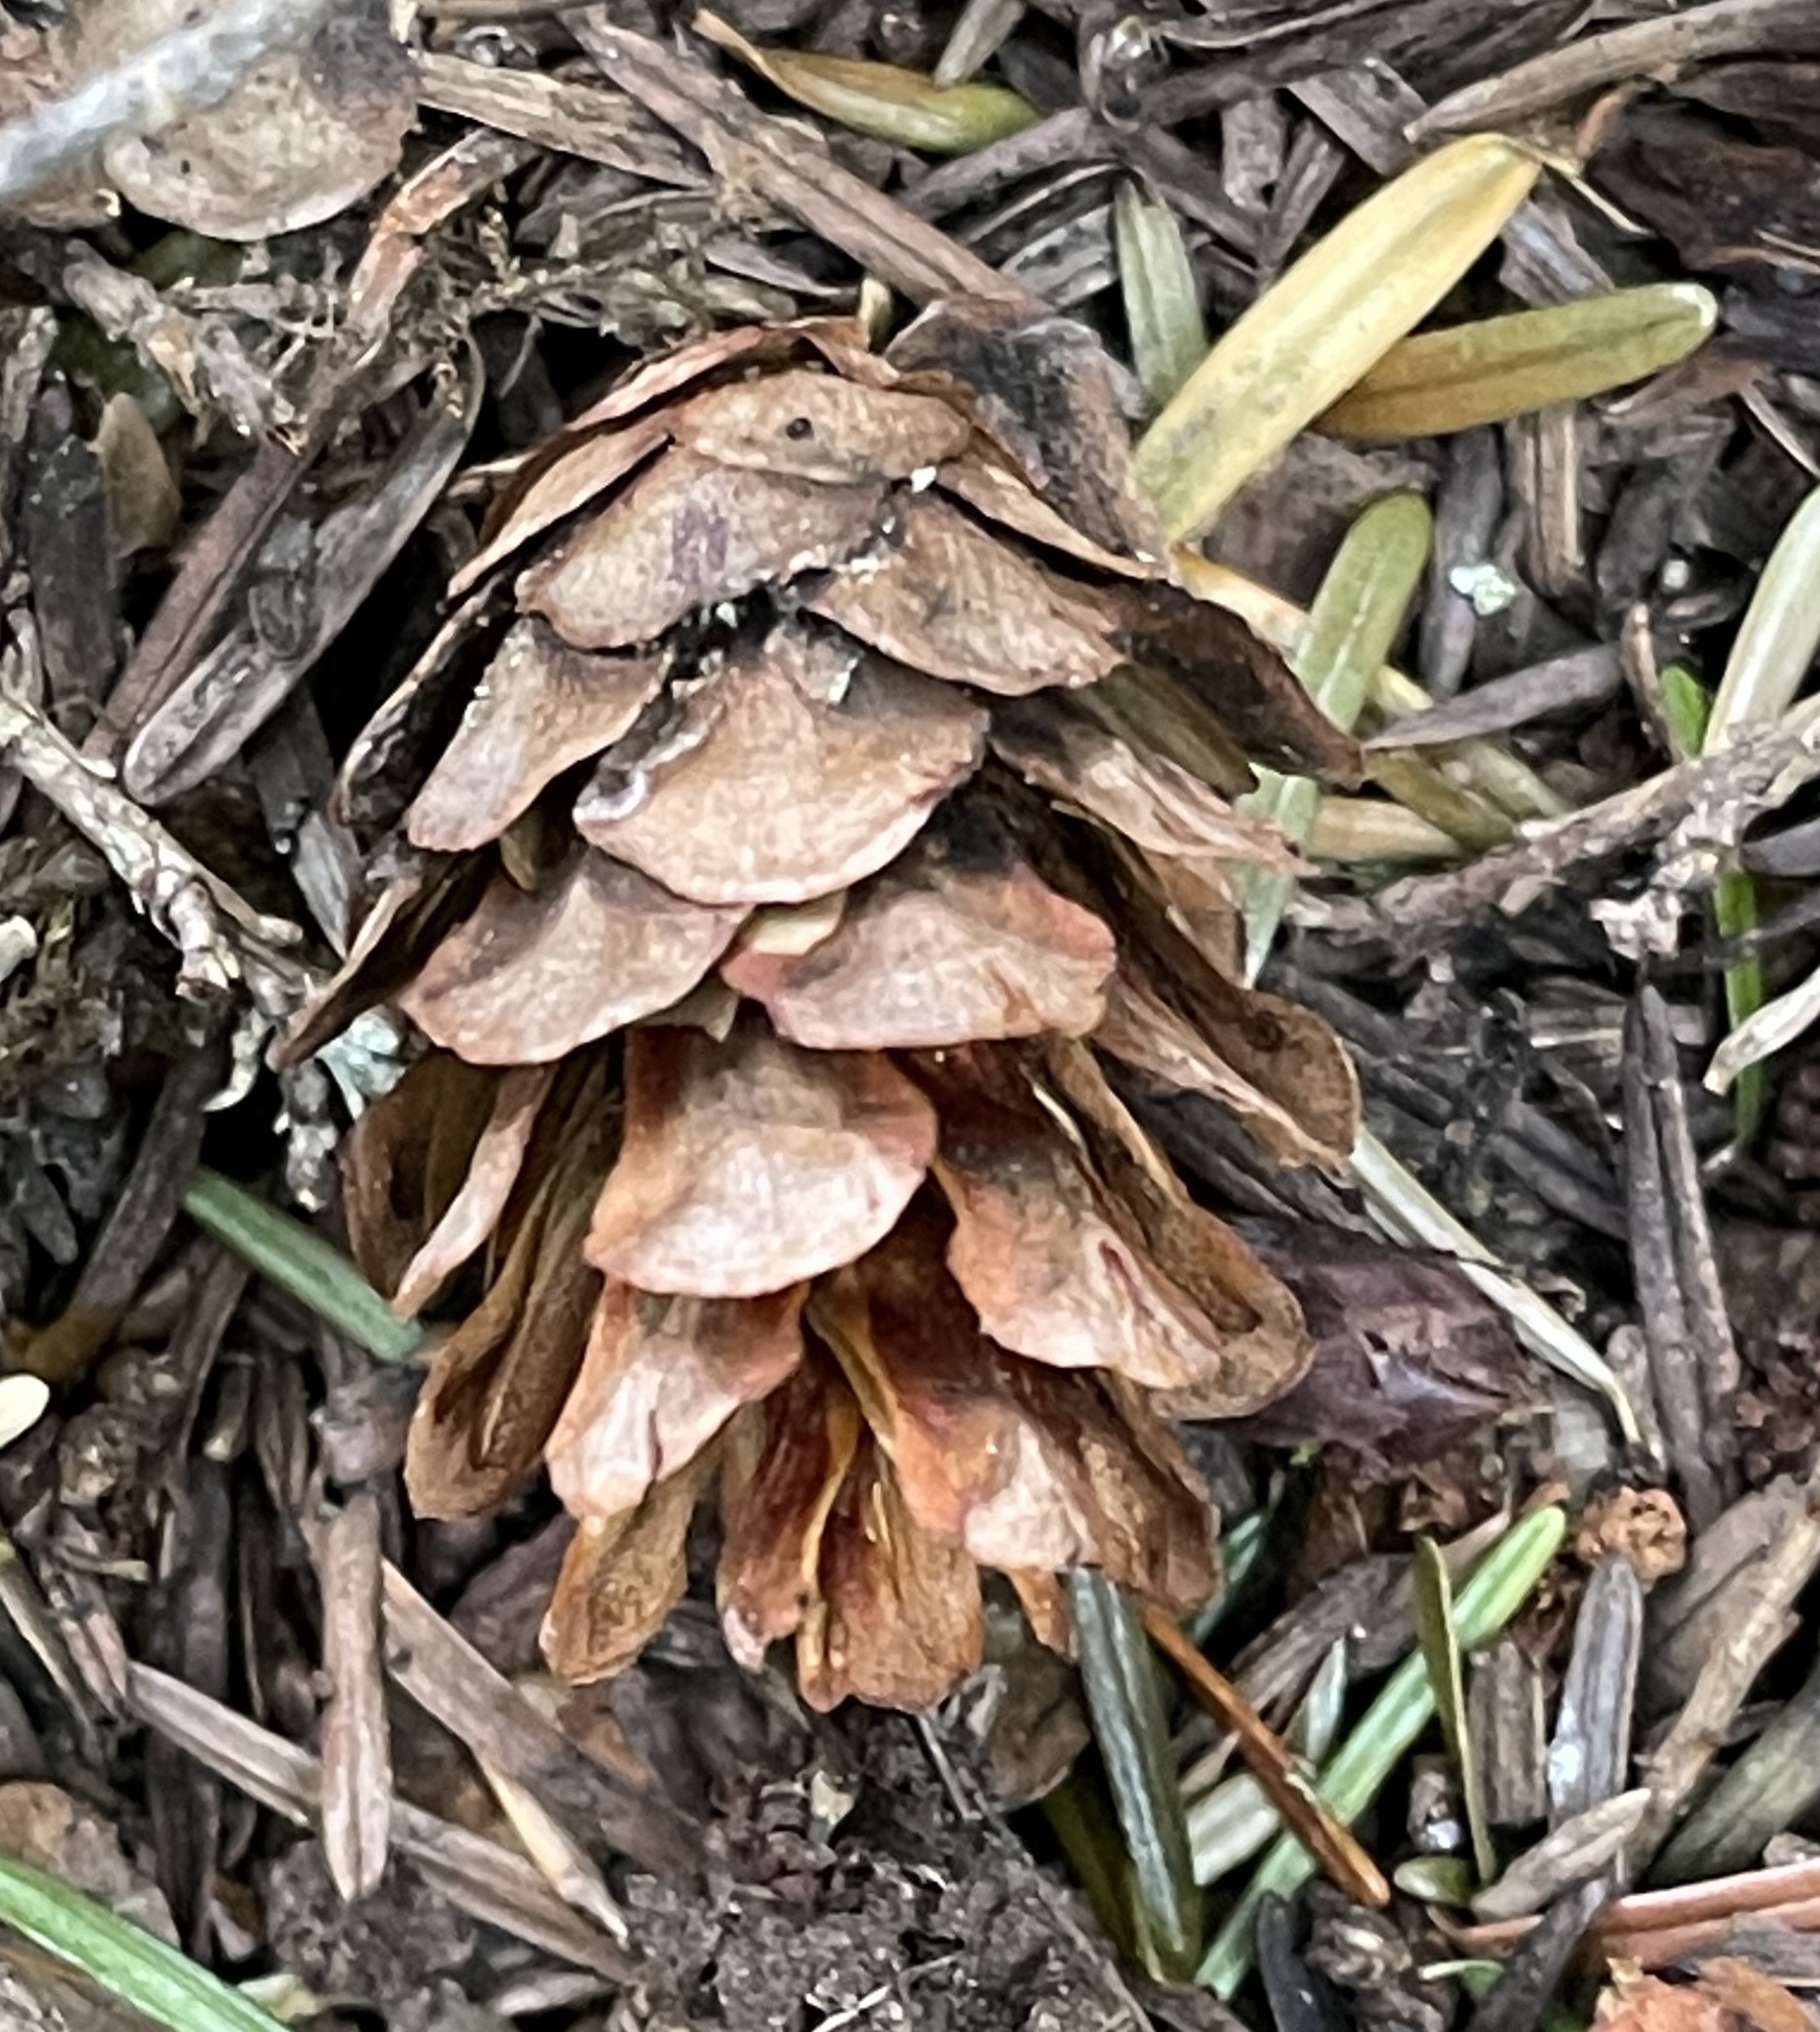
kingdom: Plantae
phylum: Tracheophyta
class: Pinopsida
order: Pinales
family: Pinaceae
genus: Tsuga
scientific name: Tsuga heterophylla
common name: Western hemlock
